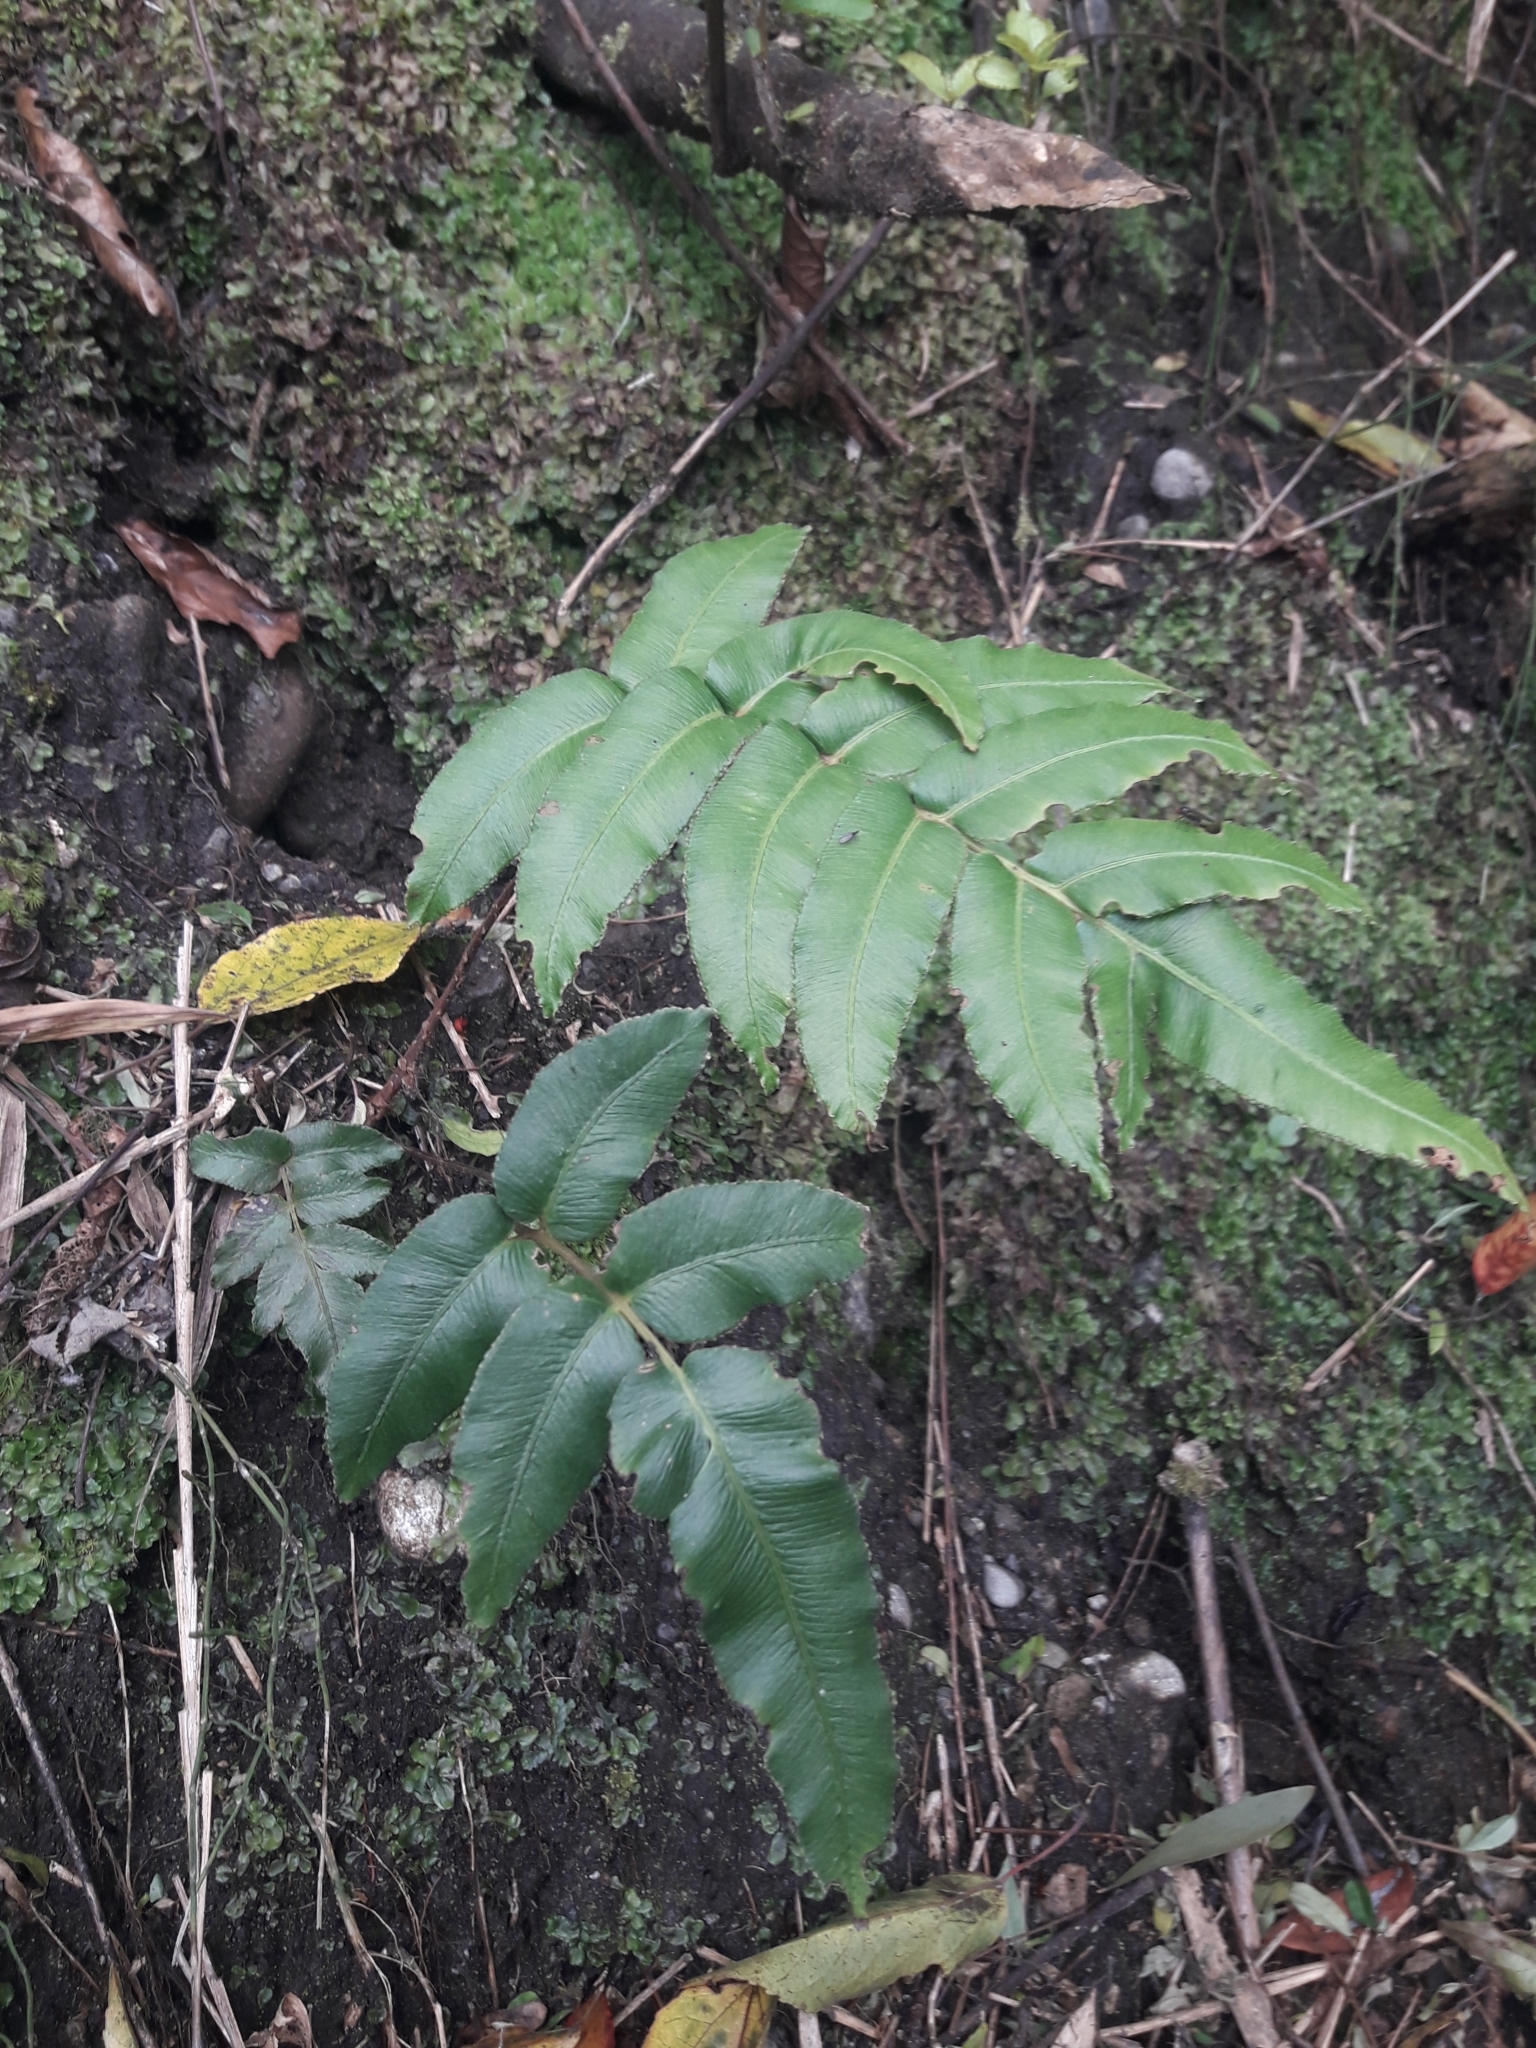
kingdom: Plantae
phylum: Tracheophyta
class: Polypodiopsida
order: Polypodiales
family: Blechnaceae
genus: Parablechnum
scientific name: Parablechnum chilense
